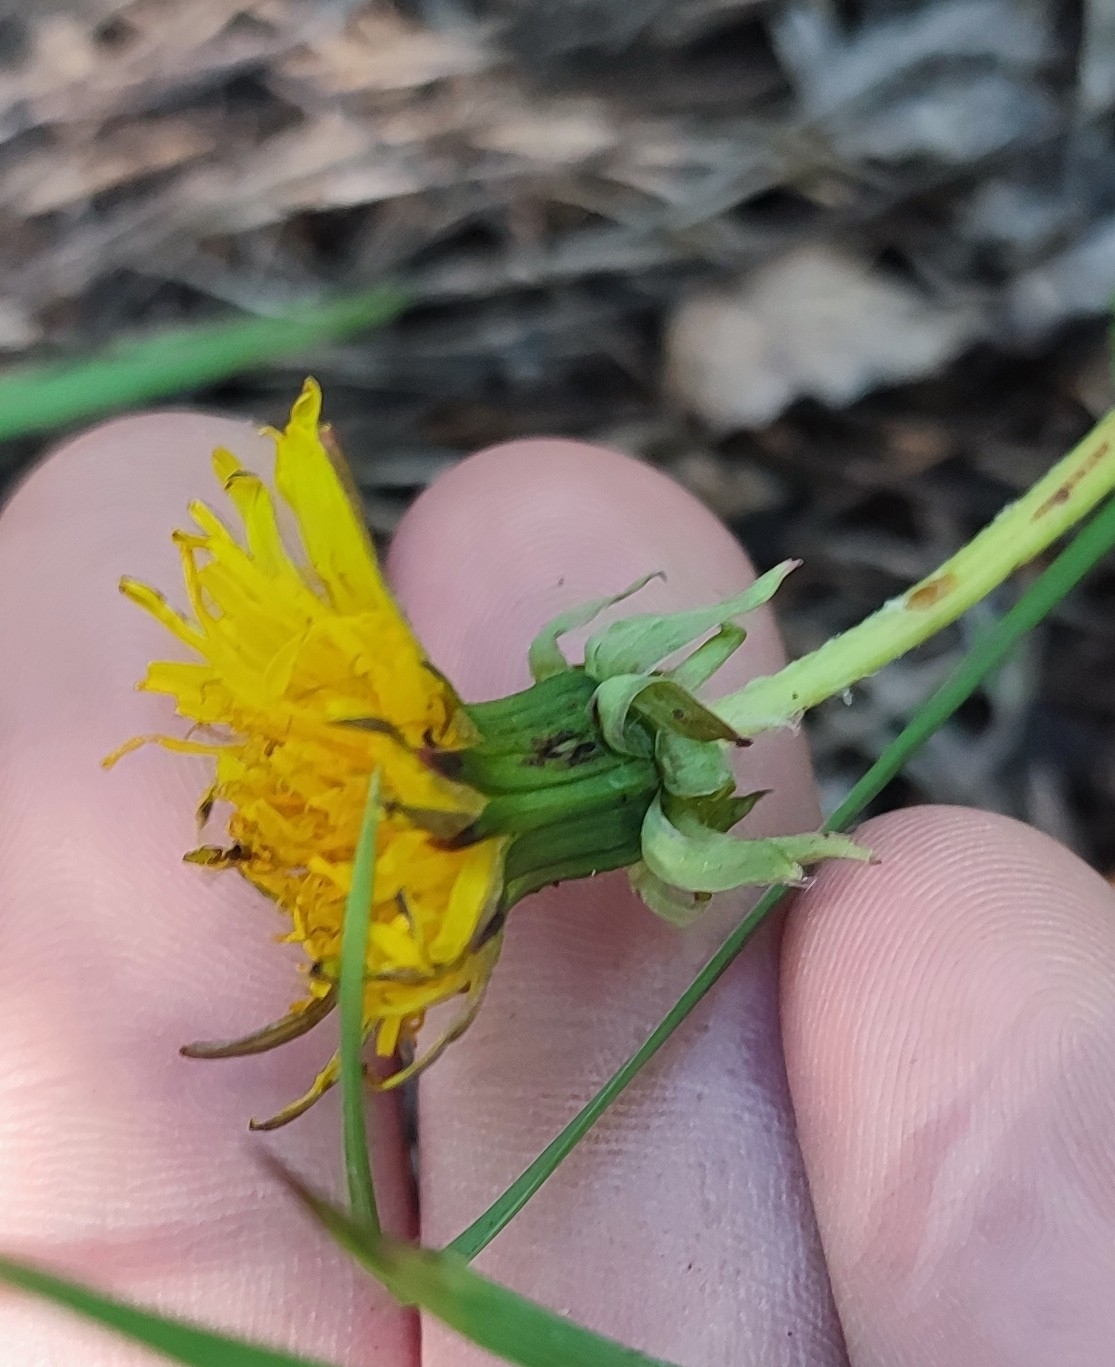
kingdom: Plantae
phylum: Tracheophyta
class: Magnoliopsida
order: Asterales
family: Asteraceae
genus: Taraxacum
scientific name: Taraxacum officinale
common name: Common dandelion
